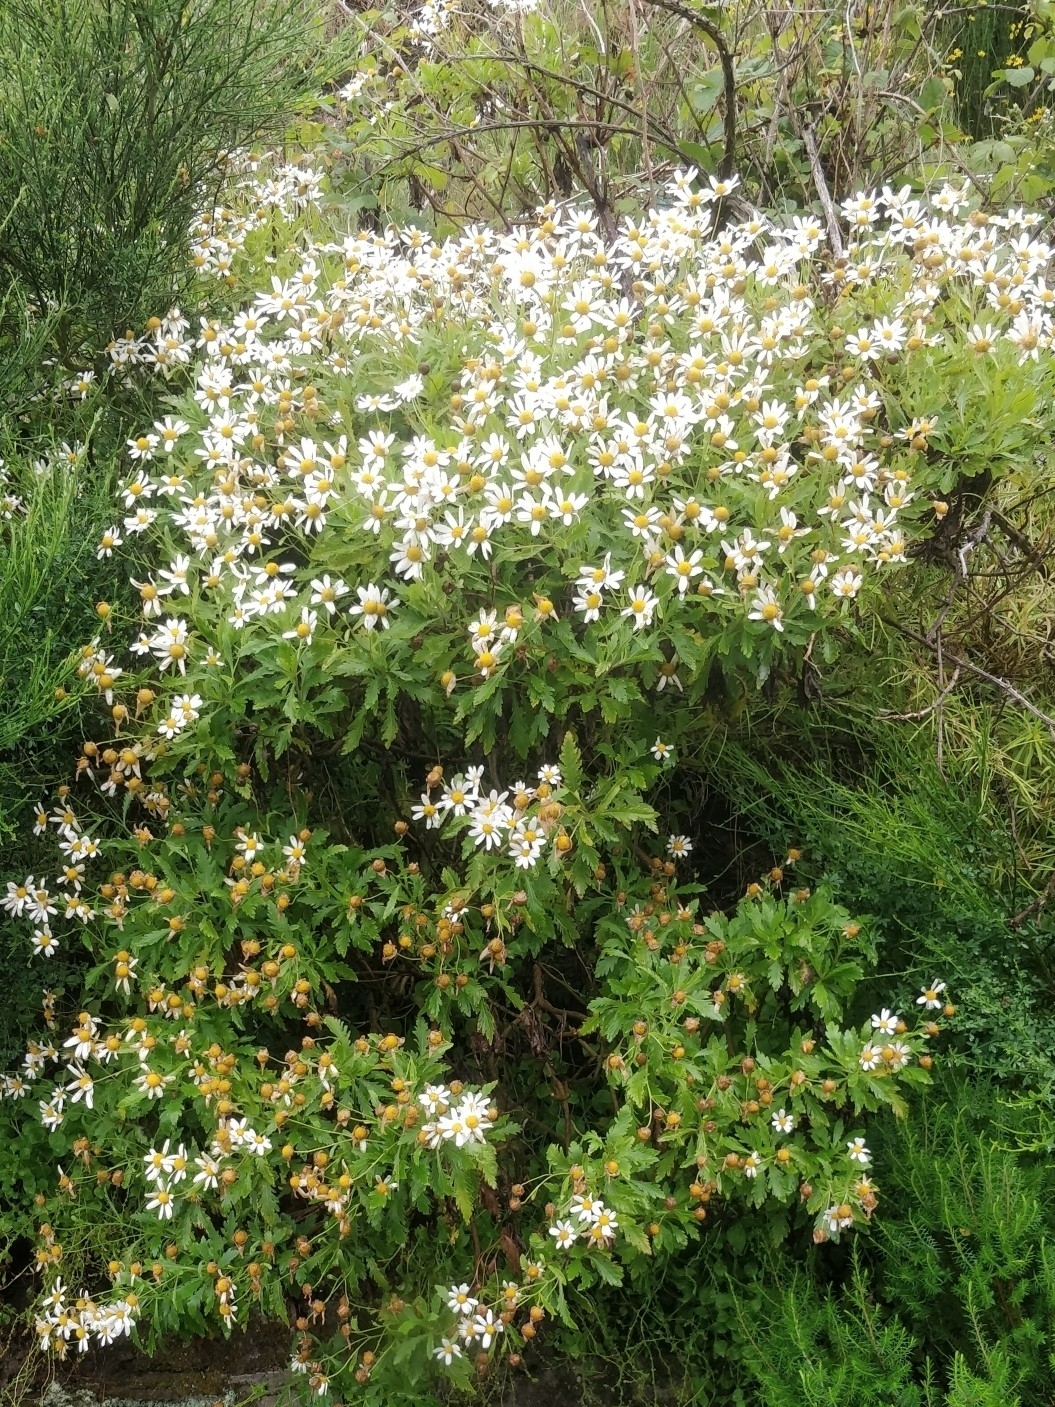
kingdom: Plantae
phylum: Tracheophyta
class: Magnoliopsida
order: Asterales
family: Asteraceae
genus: Argyranthemum
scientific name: Argyranthemum pinnatifidum
